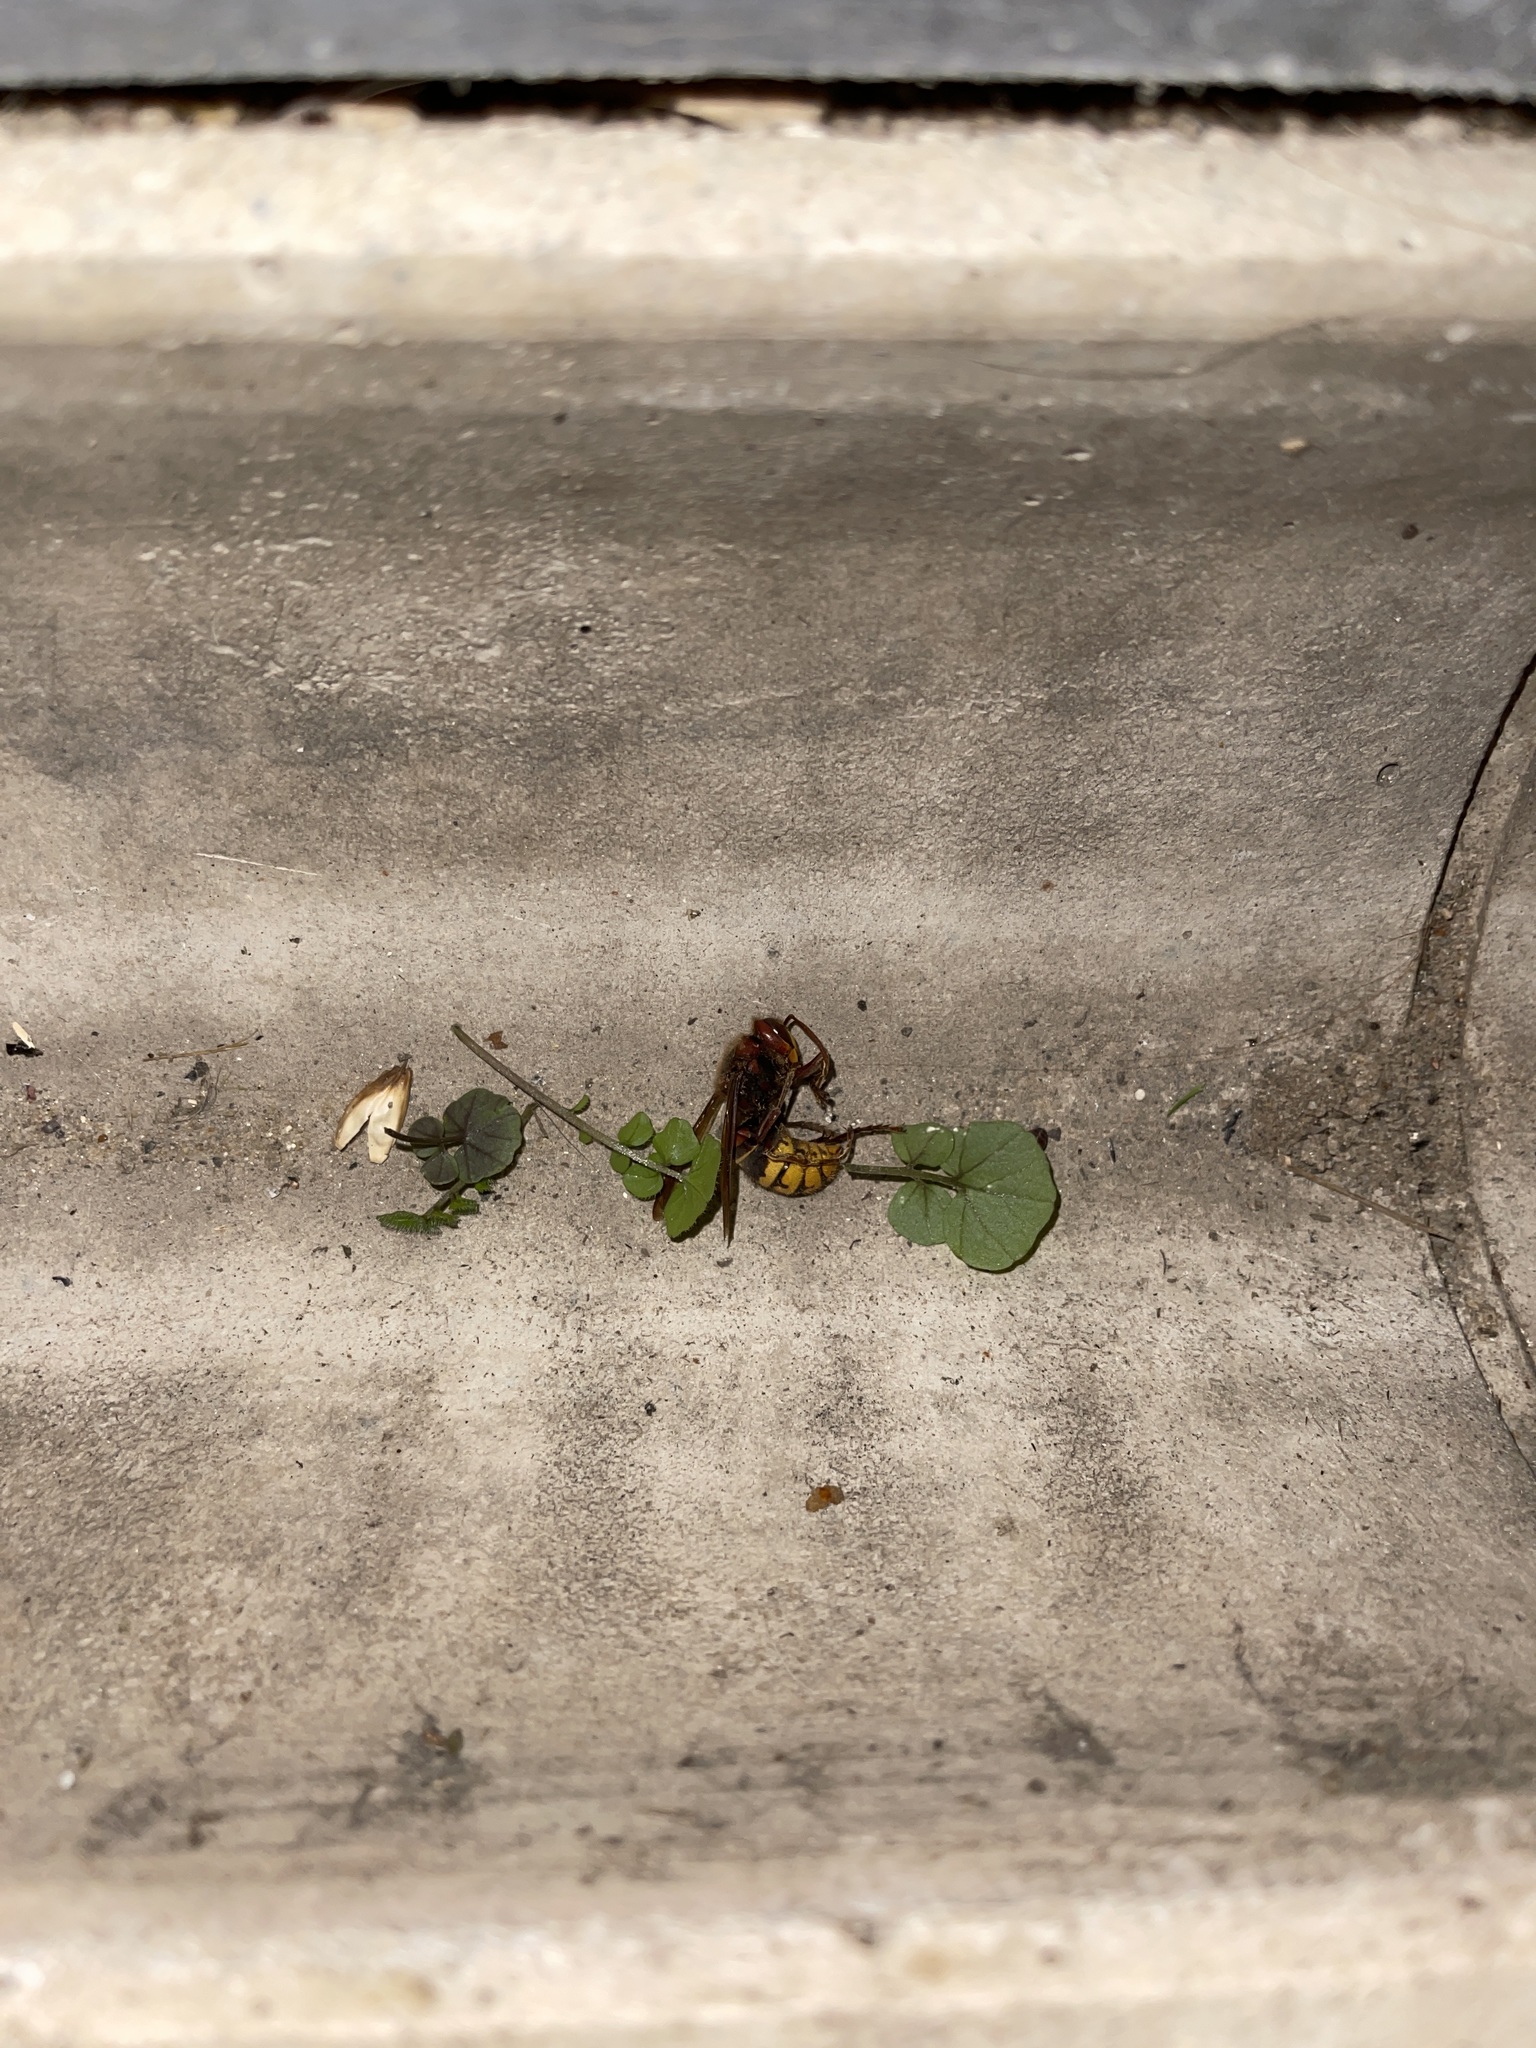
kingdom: Animalia
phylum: Arthropoda
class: Insecta
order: Hymenoptera
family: Vespidae
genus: Vespa
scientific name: Vespa crabro
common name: Hornet
